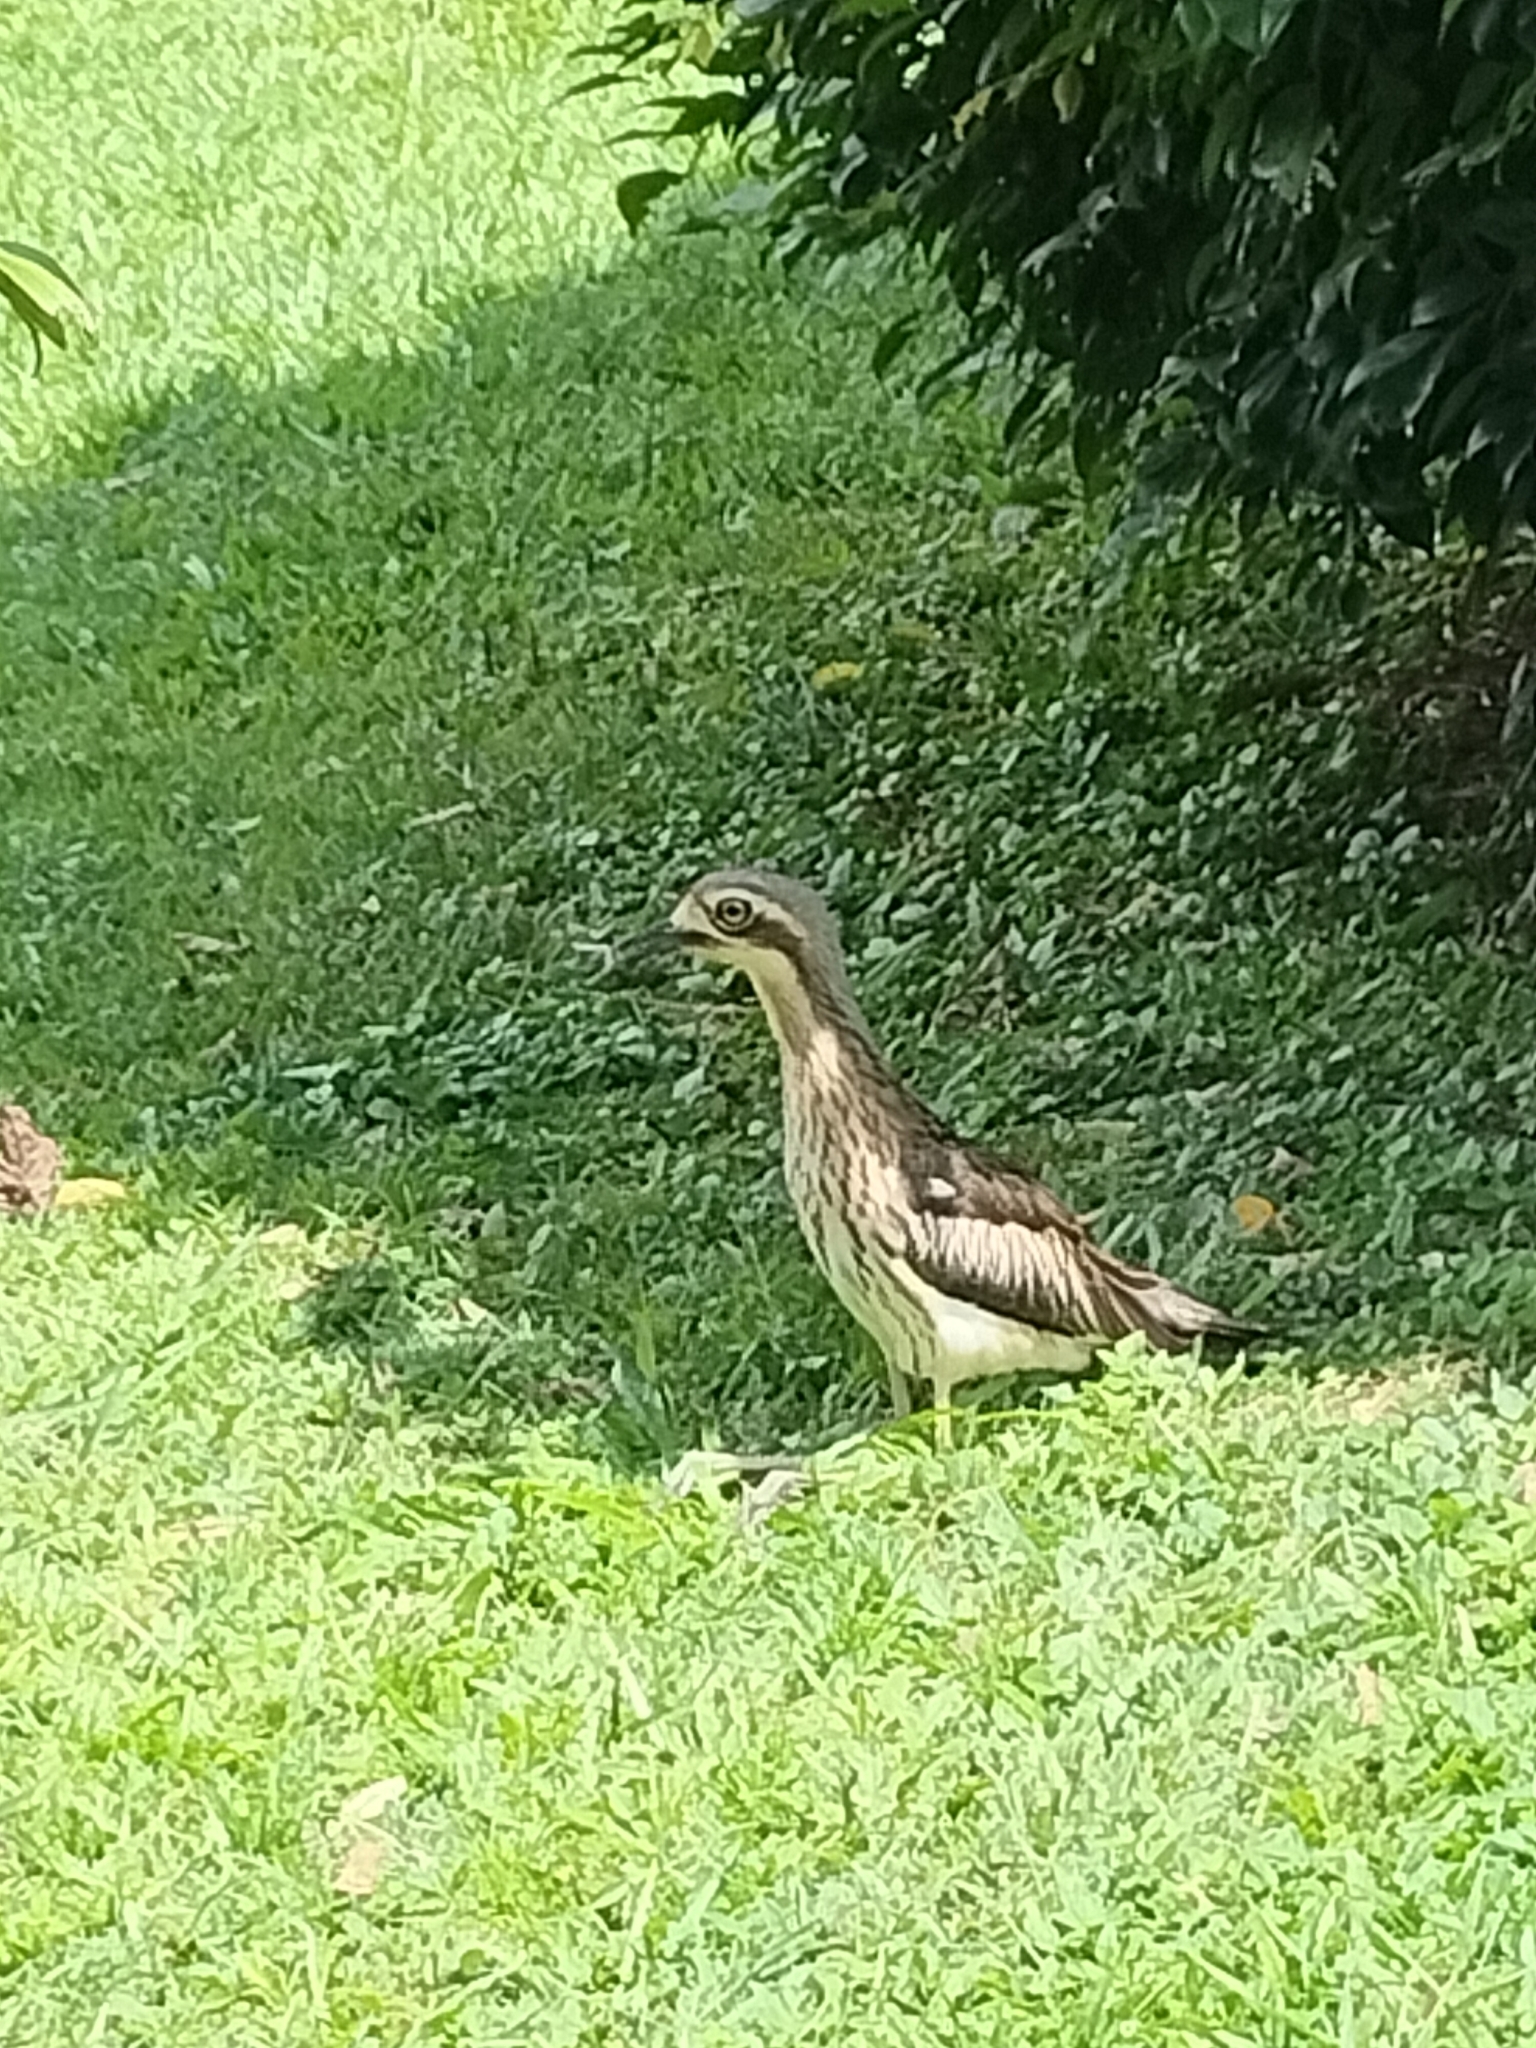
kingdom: Animalia
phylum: Chordata
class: Aves
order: Charadriiformes
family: Burhinidae
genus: Burhinus
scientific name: Burhinus grallarius
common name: Bush stone-curlew
